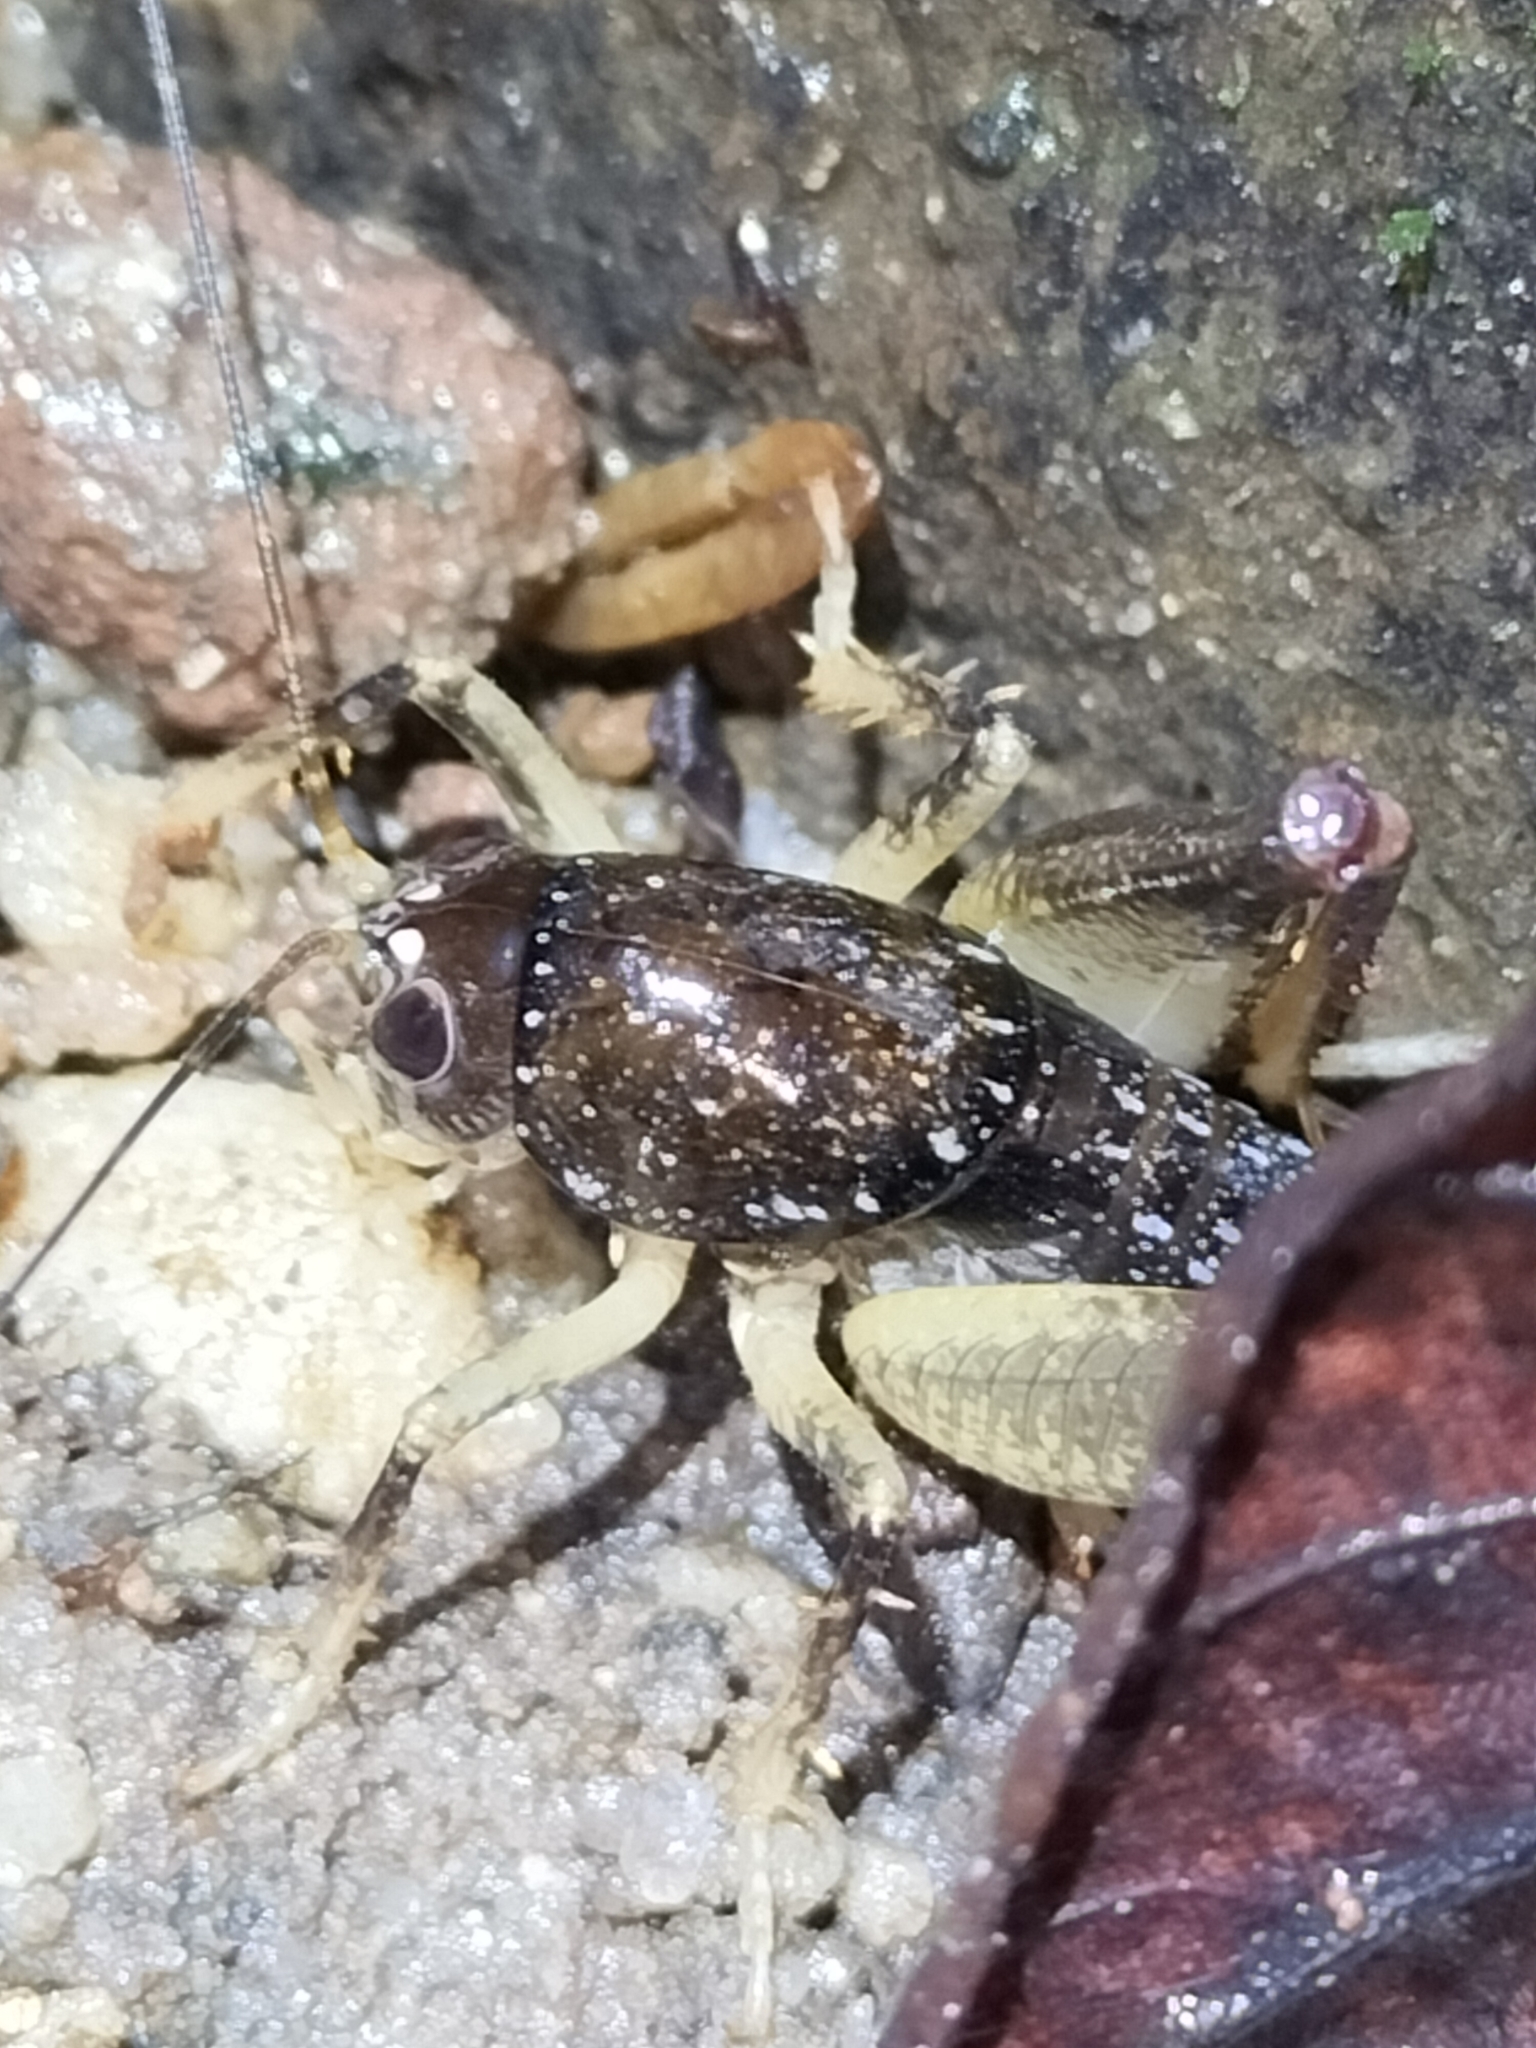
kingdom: Animalia
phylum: Arthropoda
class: Insecta
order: Orthoptera
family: Anostostomatidae
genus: Transaevum
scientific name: Transaevum laudatum
